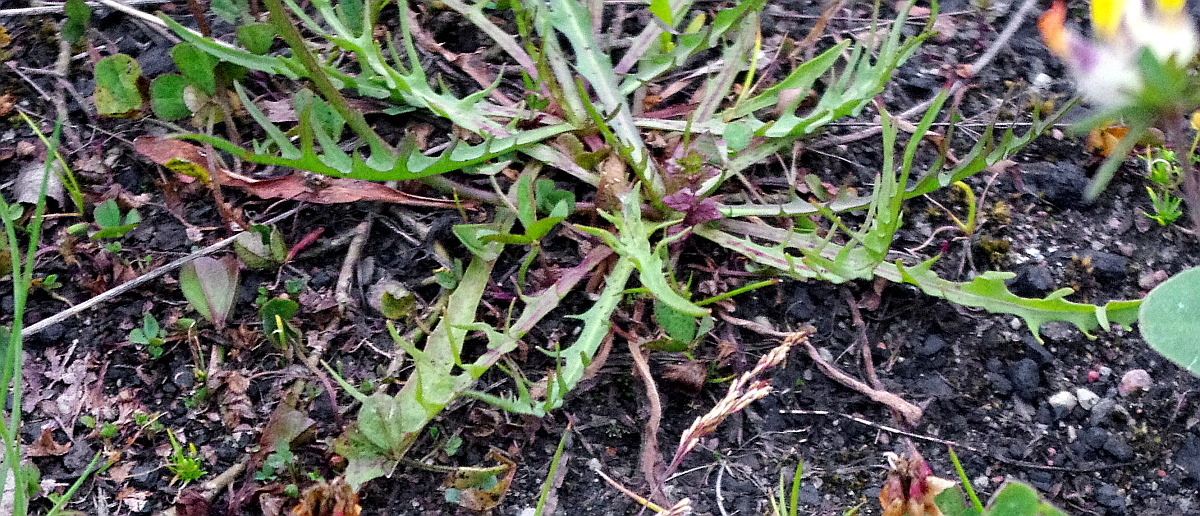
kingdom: Plantae
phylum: Tracheophyta
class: Magnoliopsida
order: Asterales
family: Asteraceae
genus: Scorzoneroides
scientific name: Scorzoneroides autumnalis
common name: Autumn hawkbit
